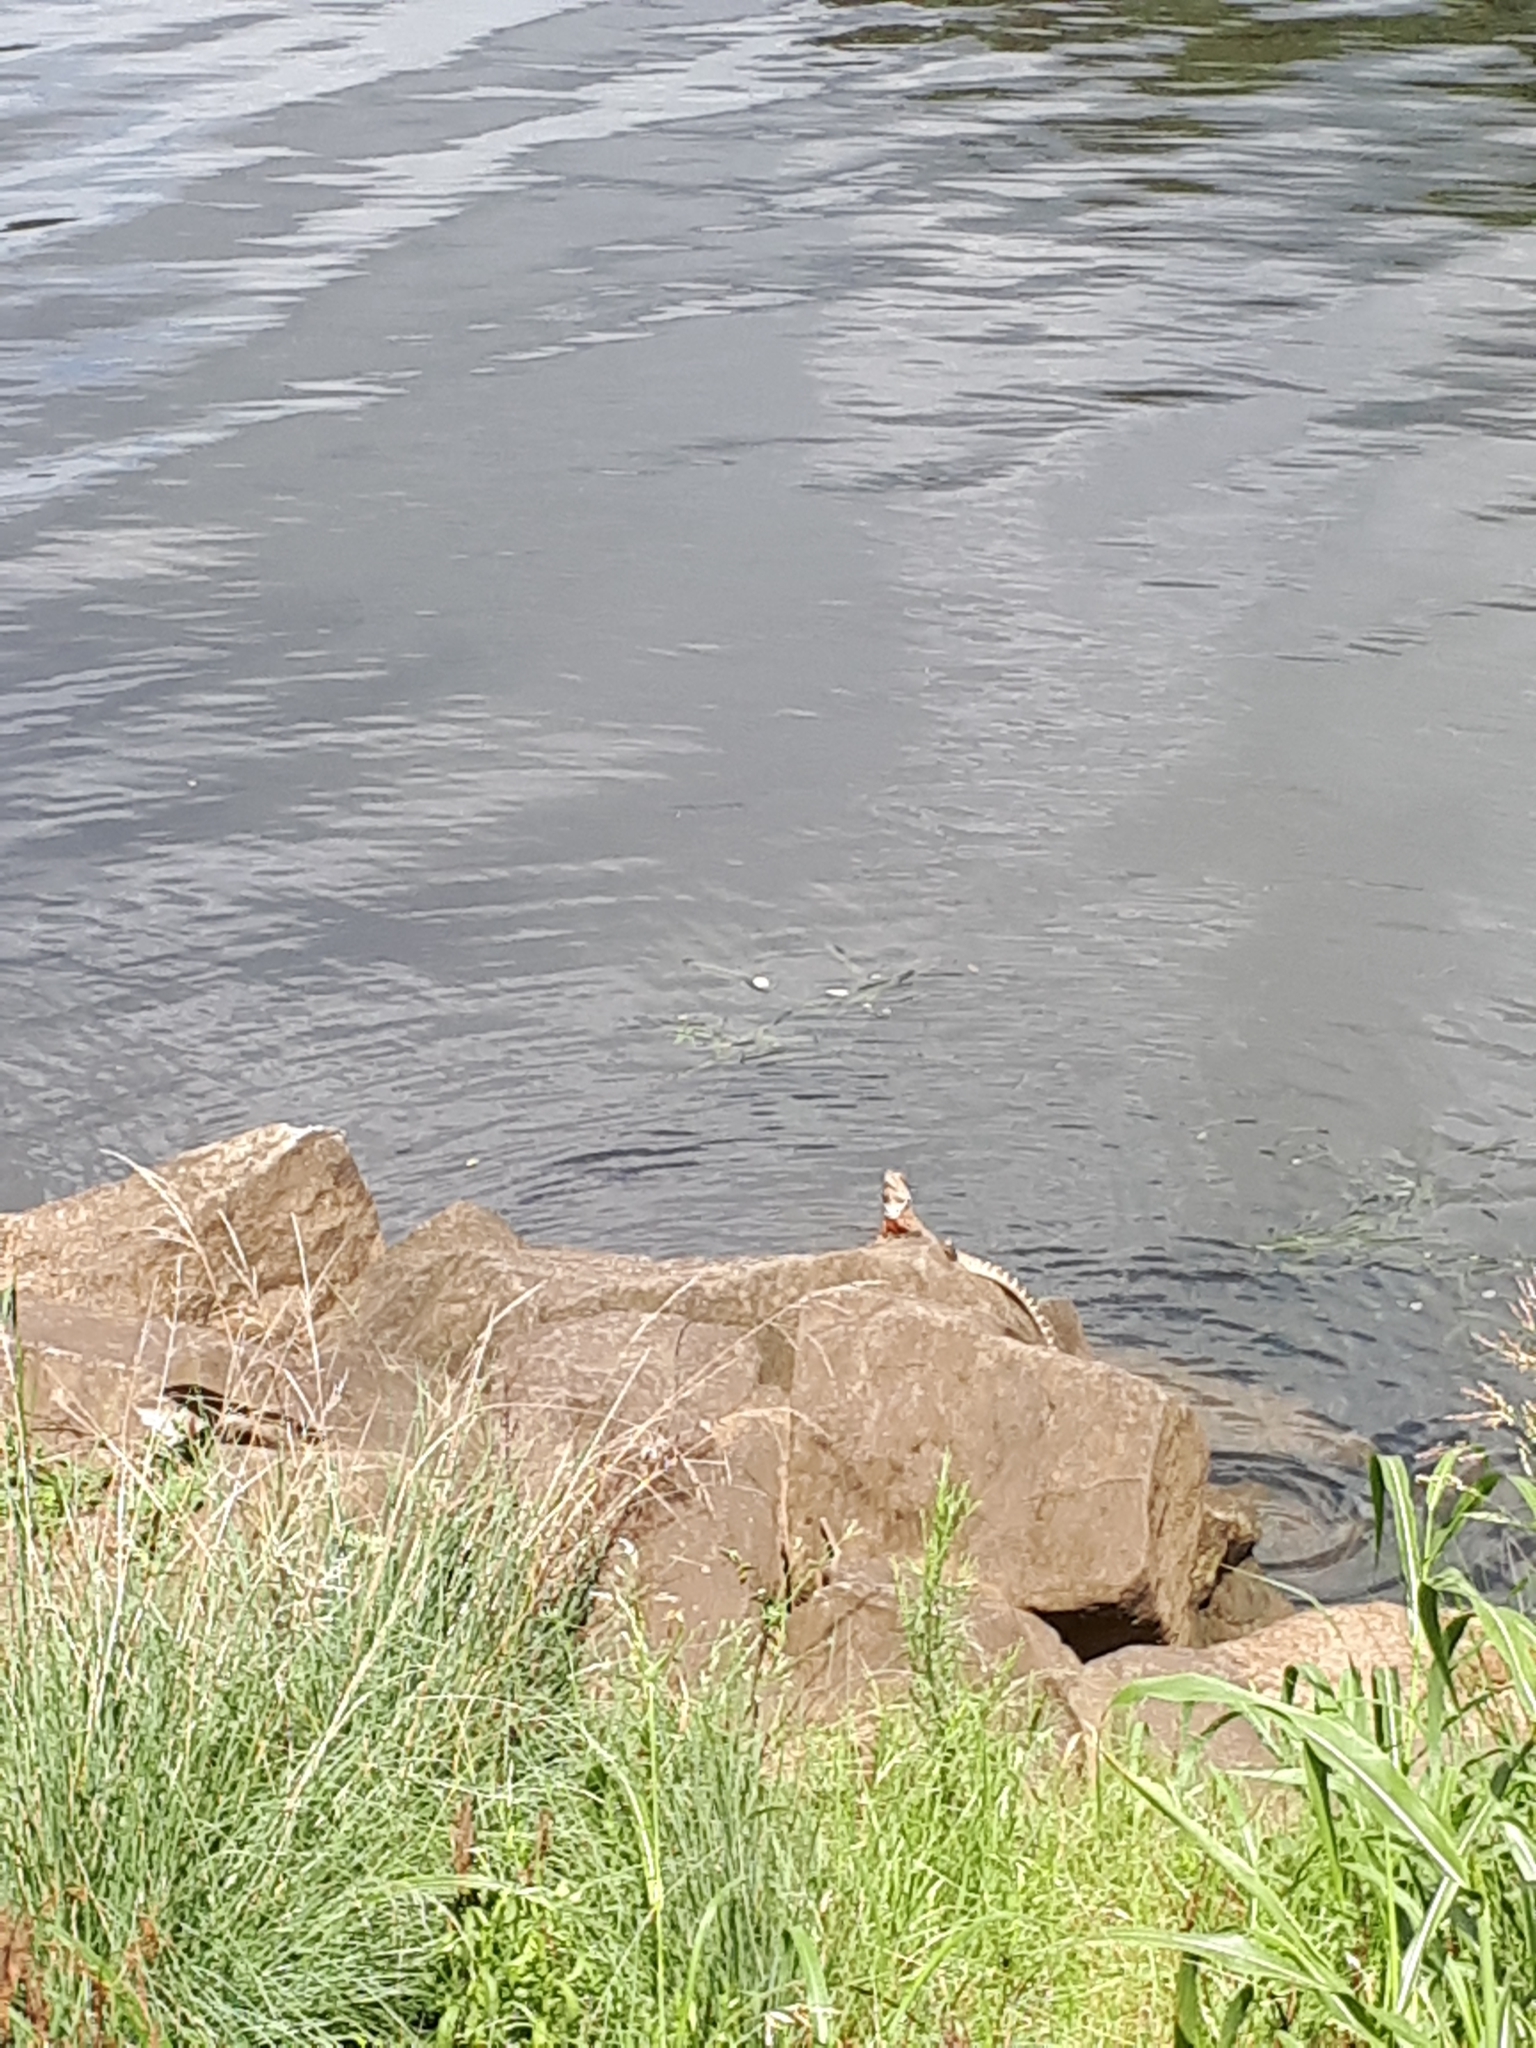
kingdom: Animalia
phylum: Chordata
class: Squamata
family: Agamidae
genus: Intellagama
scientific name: Intellagama lesueurii
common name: Eastern water dragon
